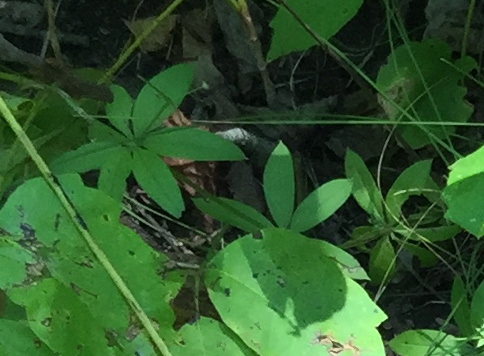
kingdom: Plantae
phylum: Tracheophyta
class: Magnoliopsida
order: Gentianales
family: Rubiaceae
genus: Galium
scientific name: Galium triflorum
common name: Fragrant bedstraw
